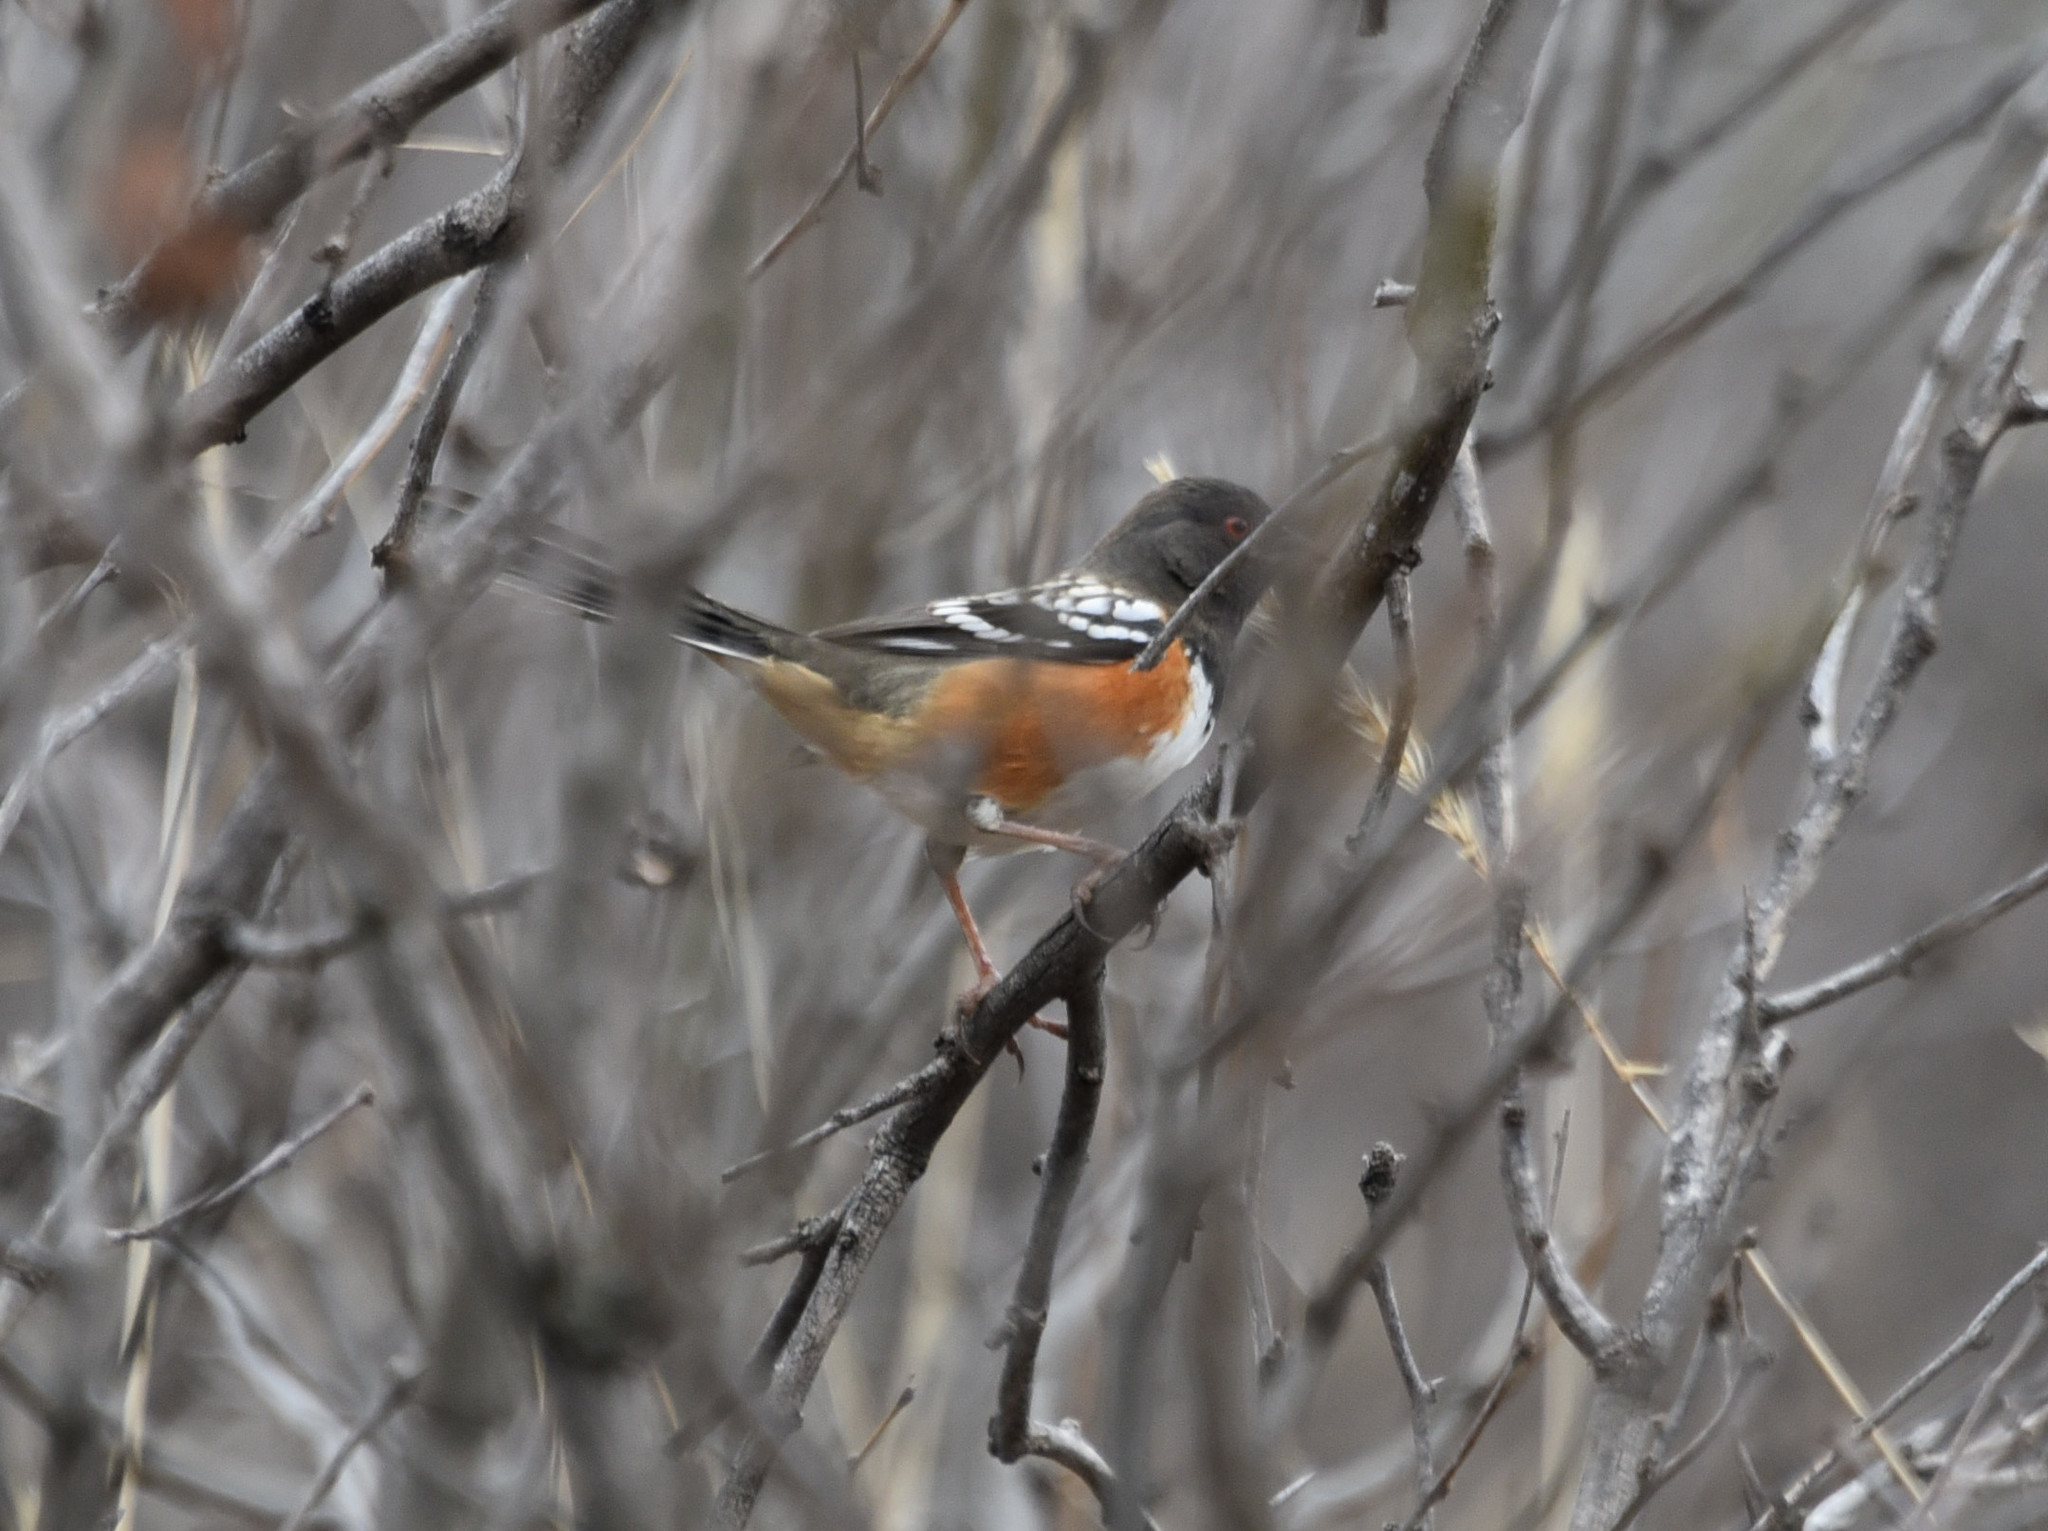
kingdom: Animalia
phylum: Chordata
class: Aves
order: Passeriformes
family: Passerellidae
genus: Pipilo
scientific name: Pipilo maculatus
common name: Spotted towhee
